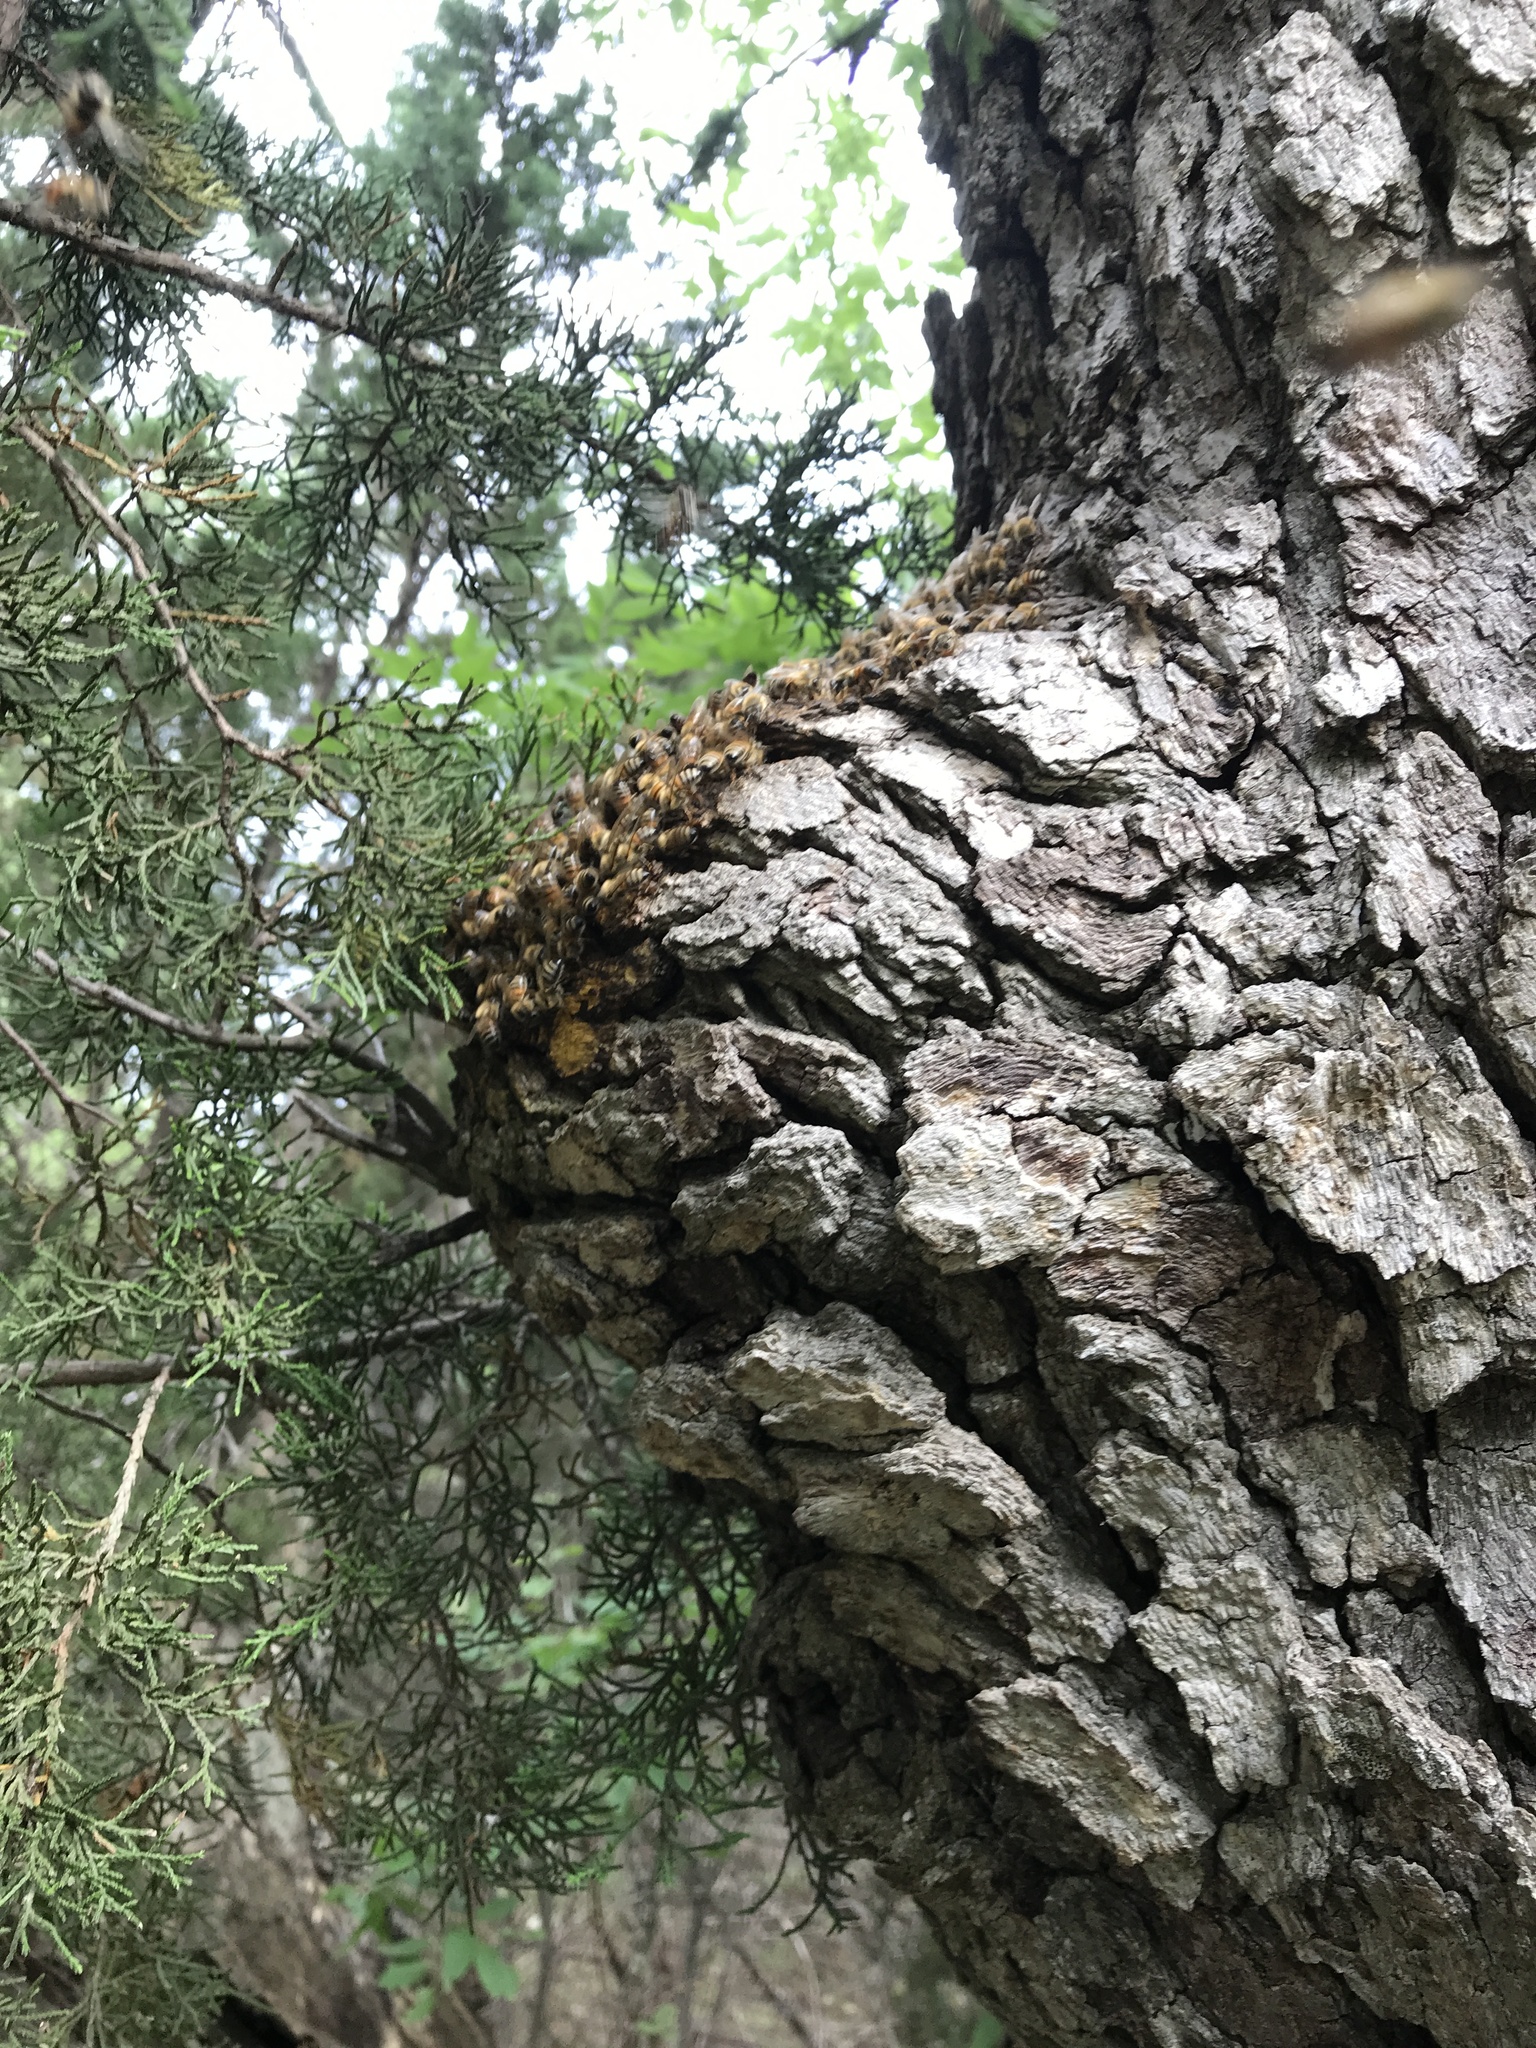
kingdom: Animalia
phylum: Arthropoda
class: Insecta
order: Hymenoptera
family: Apidae
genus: Apis
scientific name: Apis mellifera
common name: Honey bee
